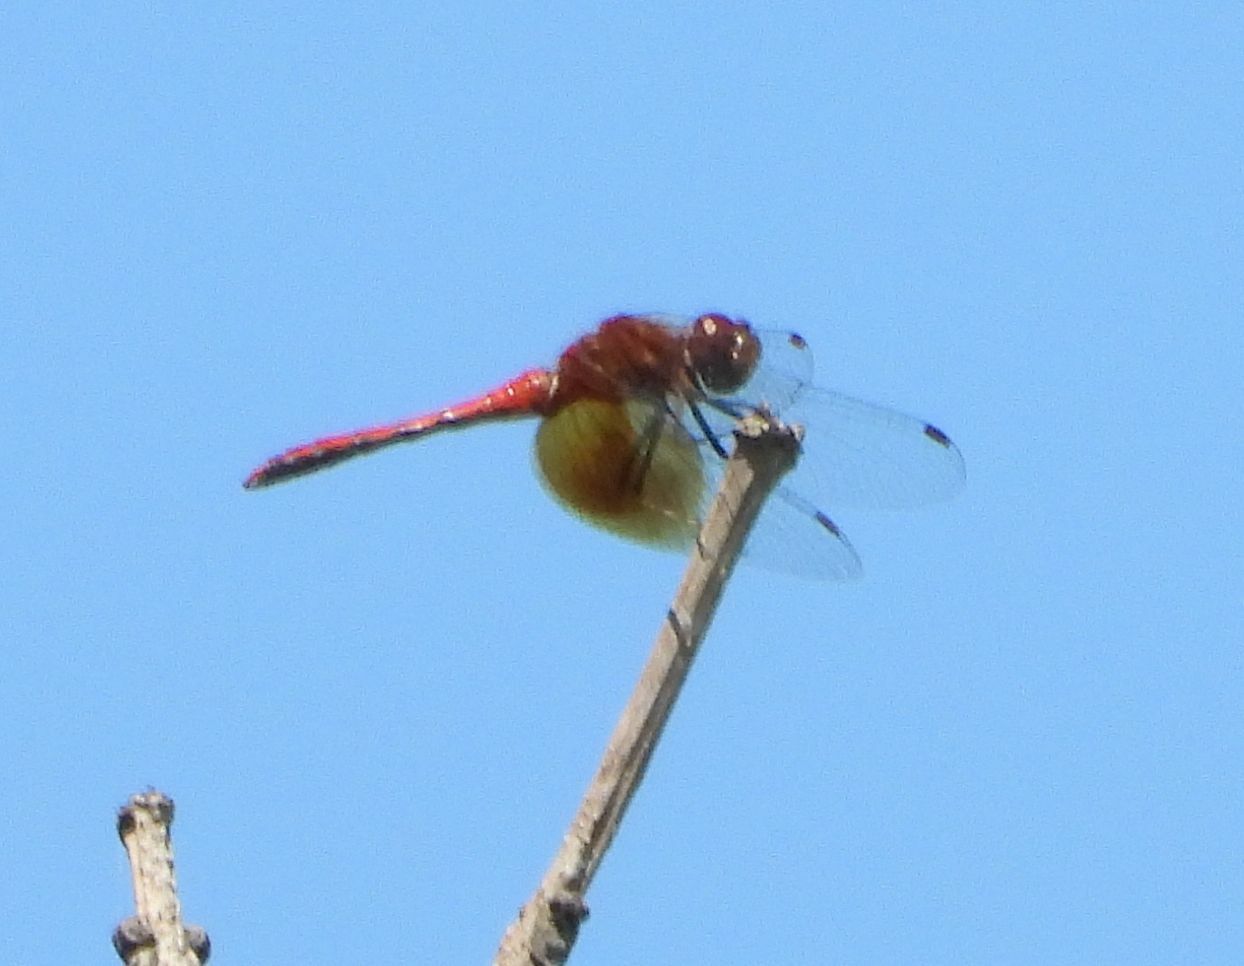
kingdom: Animalia
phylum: Arthropoda
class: Insecta
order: Odonata
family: Libellulidae
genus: Sympetrum
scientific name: Sympetrum semicinctum
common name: Band-winged meadowhawk
